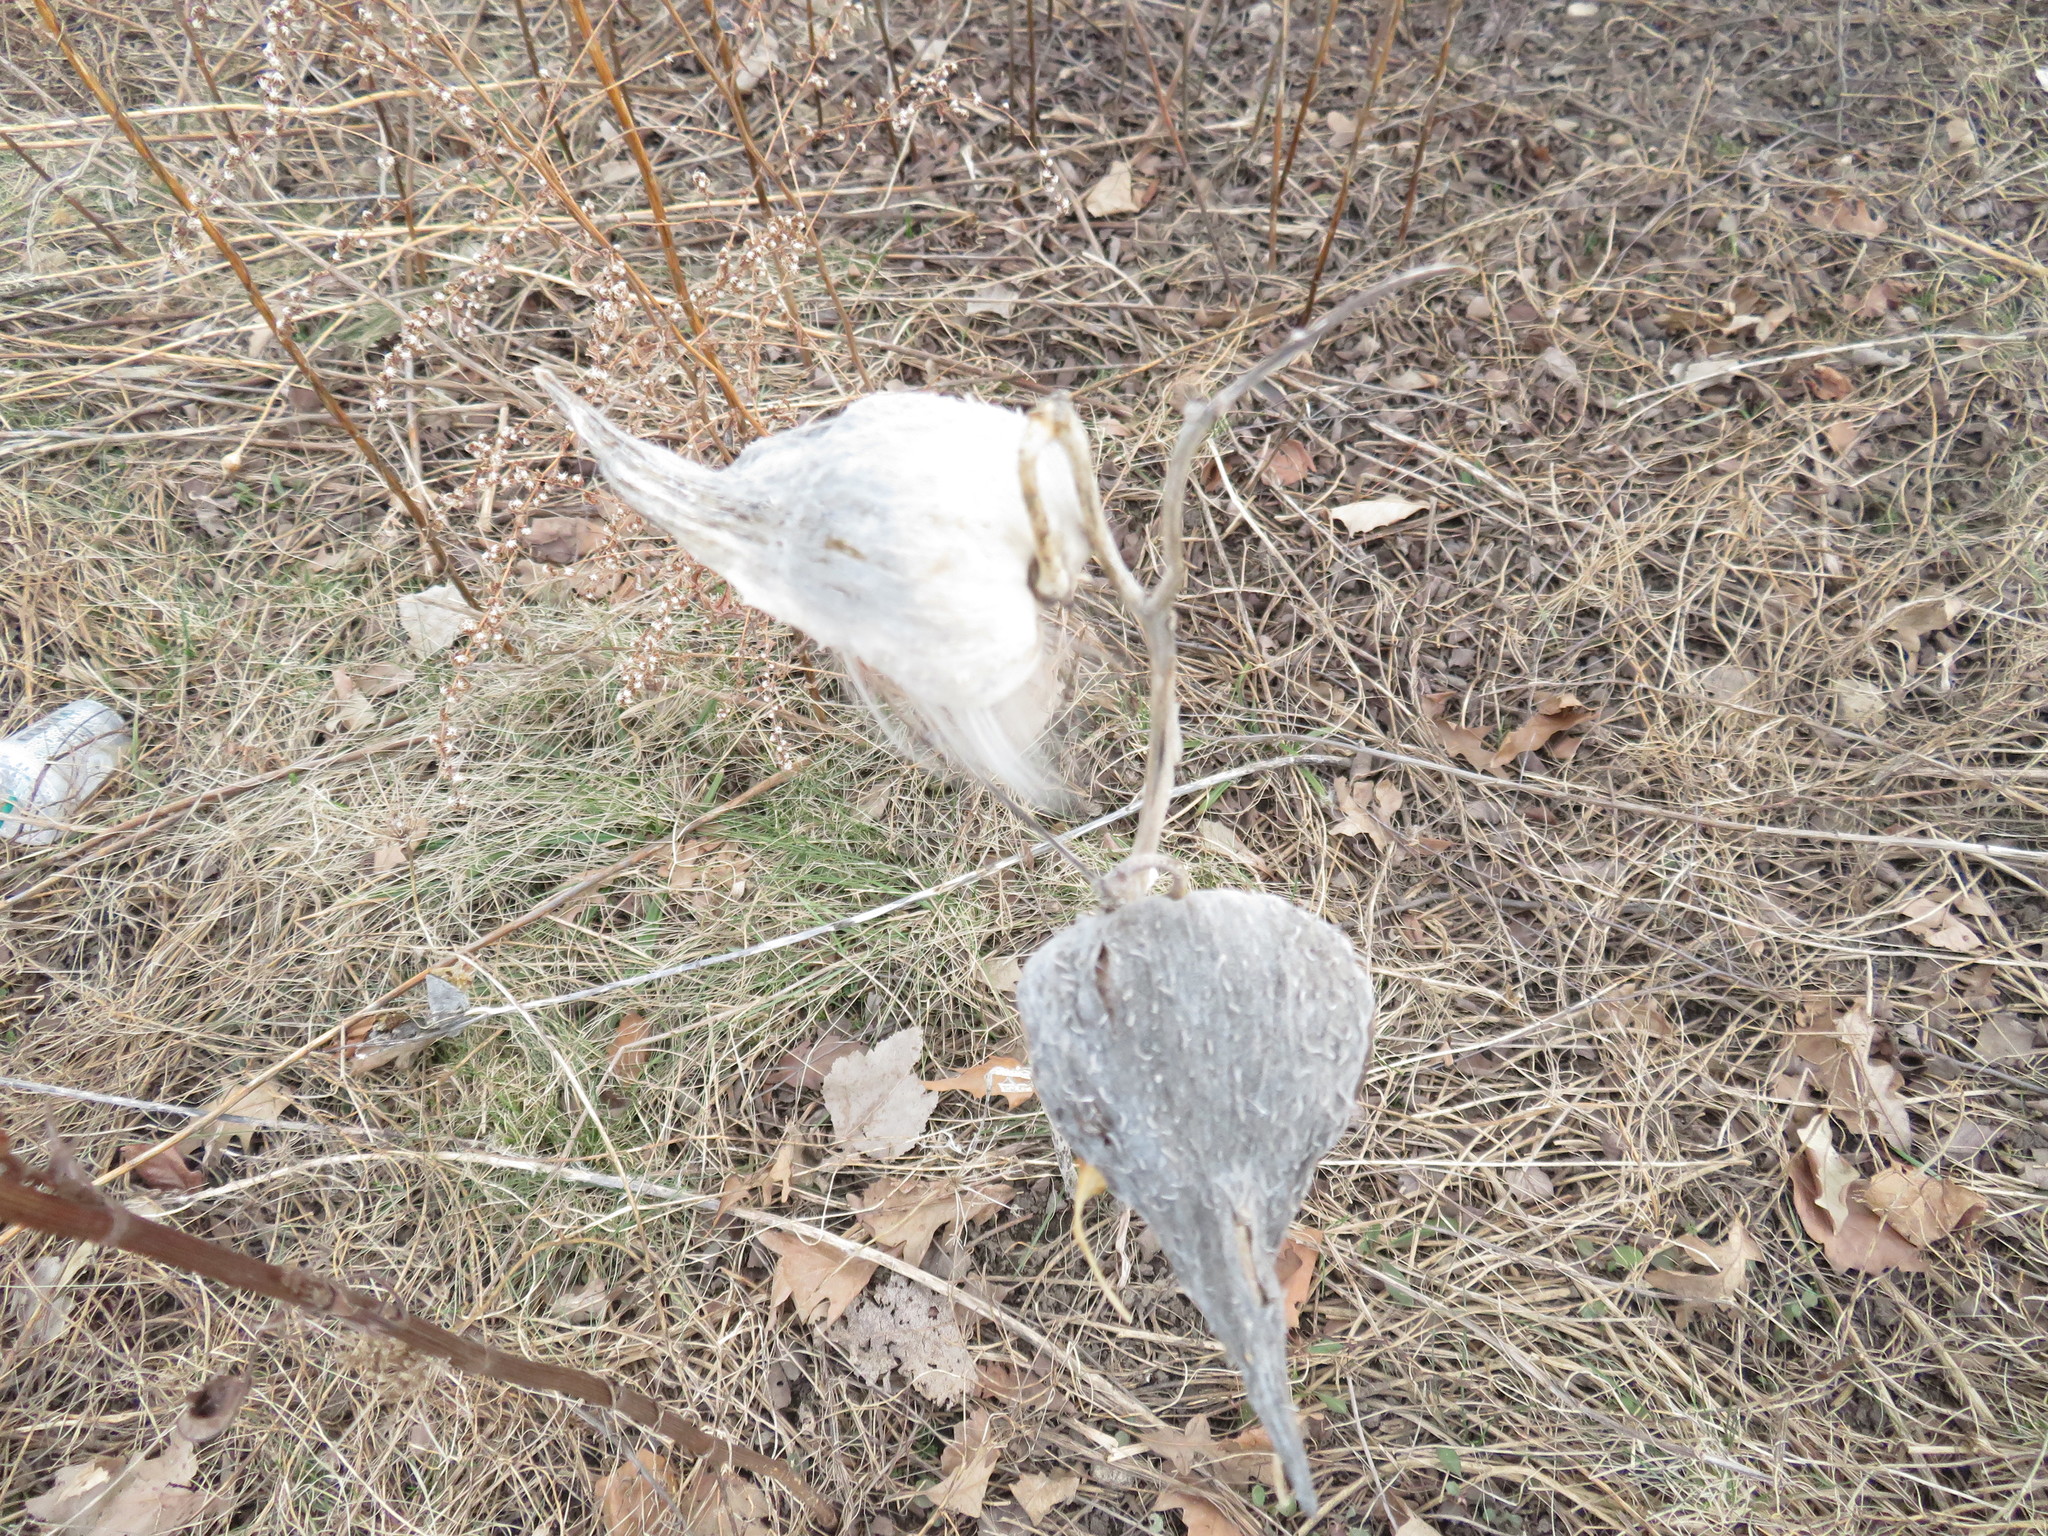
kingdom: Plantae
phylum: Tracheophyta
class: Magnoliopsida
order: Gentianales
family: Apocynaceae
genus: Asclepias
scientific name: Asclepias syriaca
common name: Common milkweed
